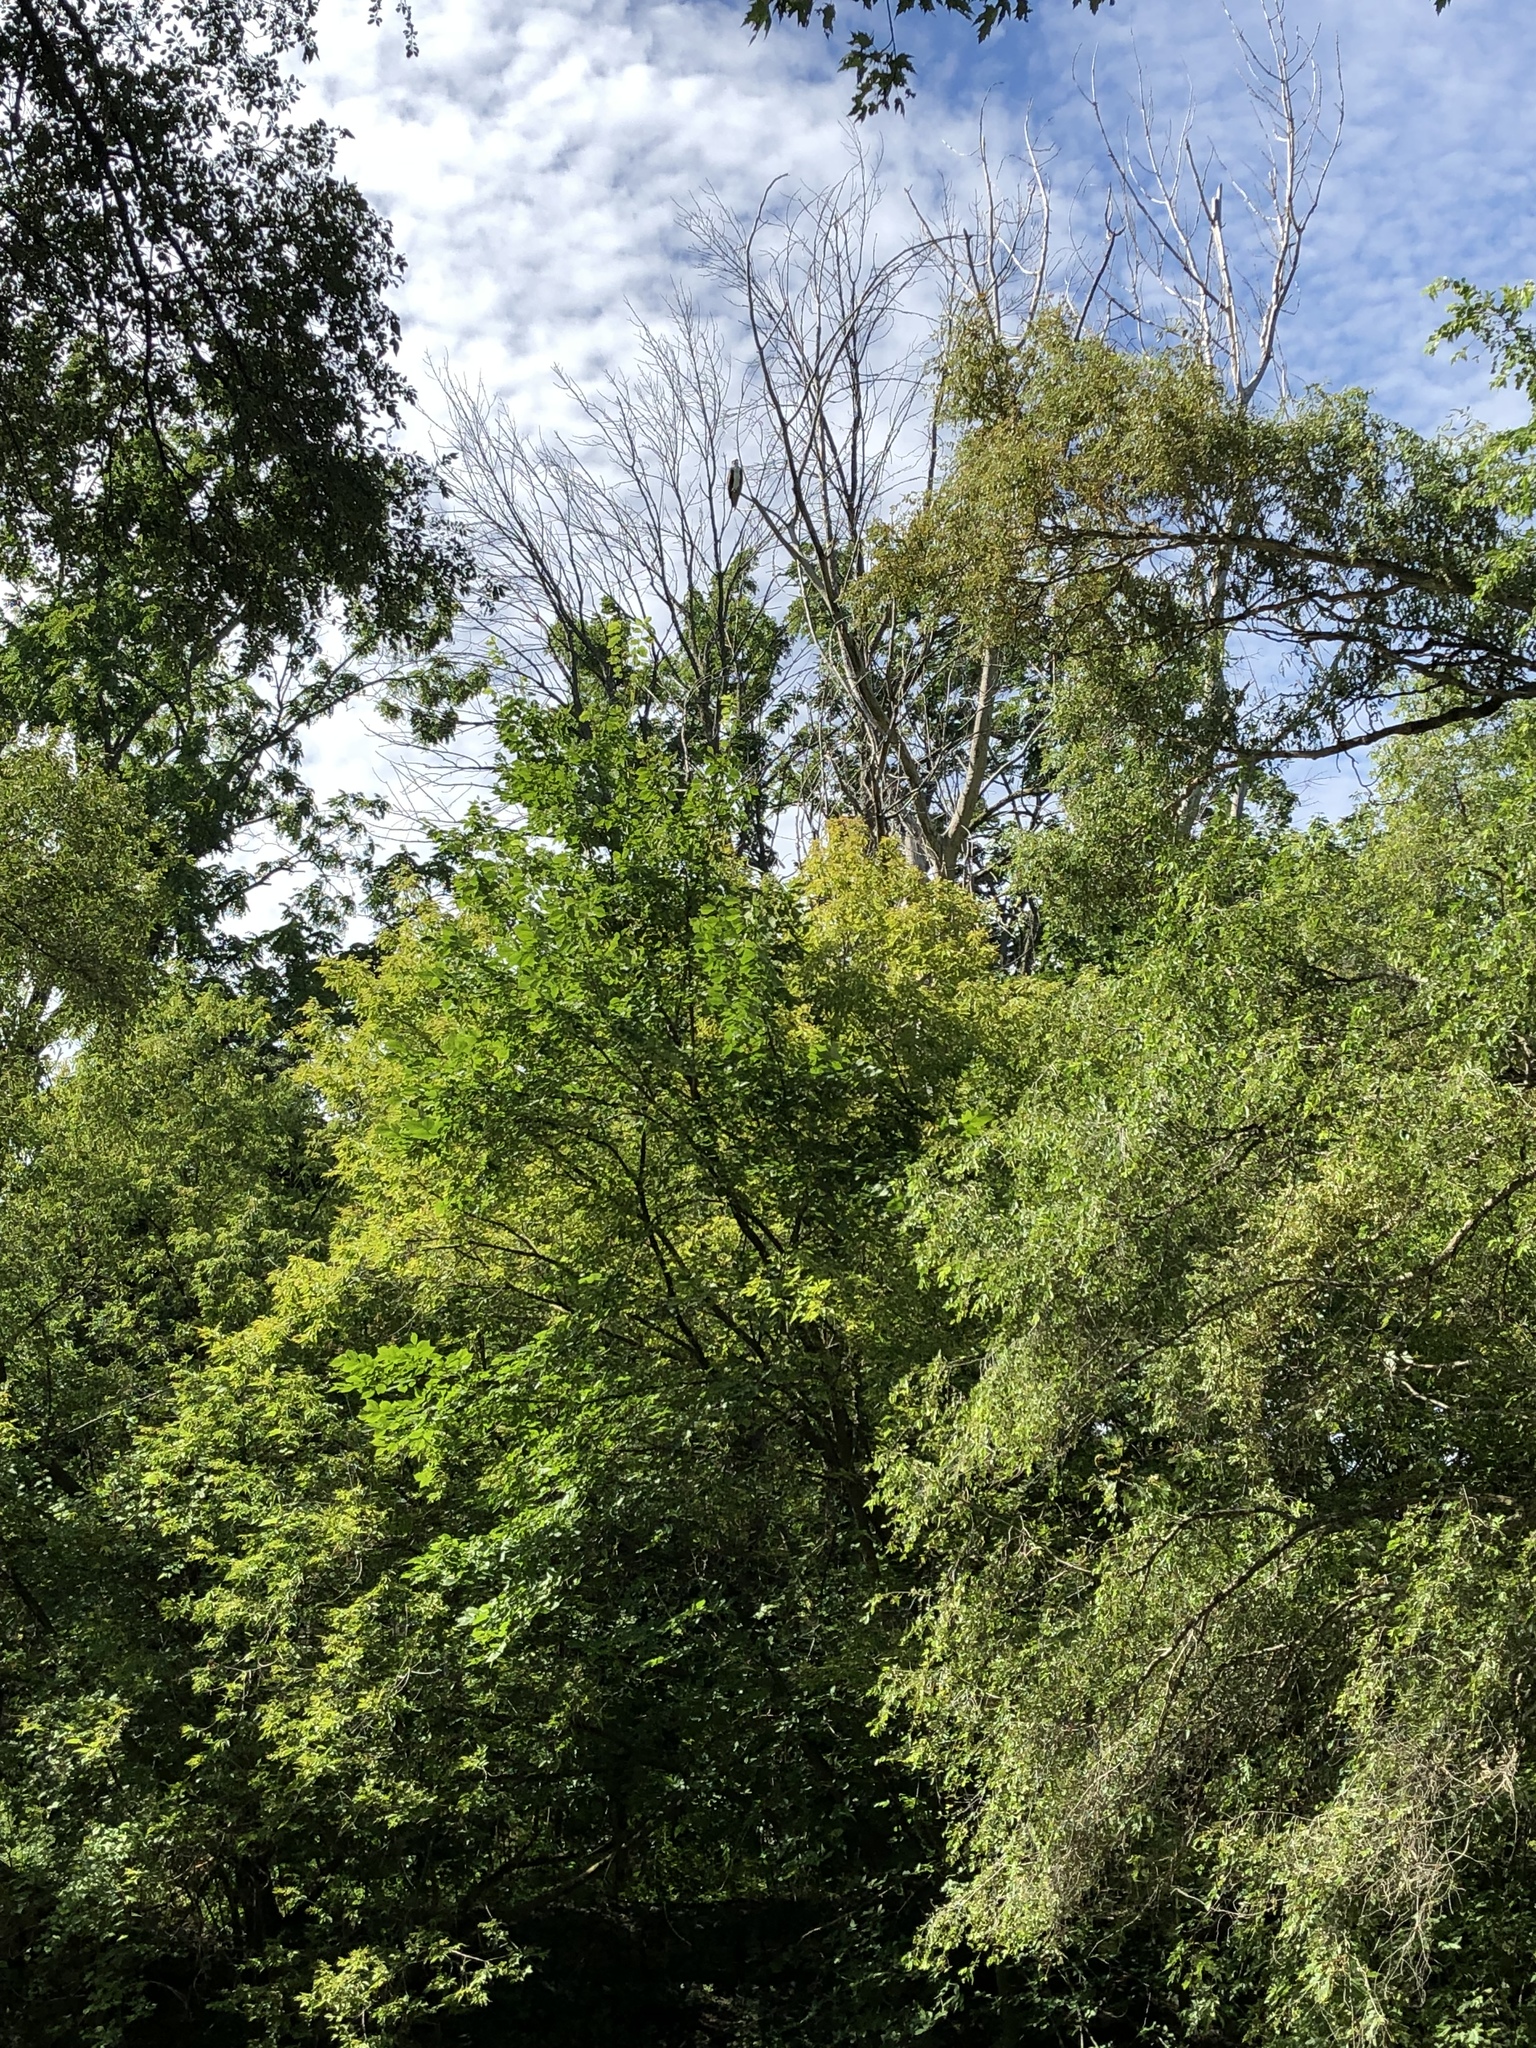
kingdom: Animalia
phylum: Chordata
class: Aves
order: Accipitriformes
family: Pandionidae
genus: Pandion
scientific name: Pandion haliaetus
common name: Osprey
